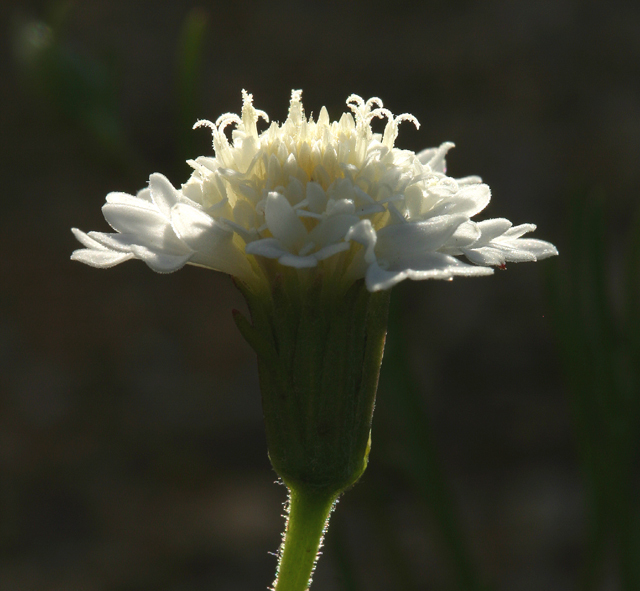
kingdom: Plantae
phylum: Tracheophyta
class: Magnoliopsida
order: Asterales
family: Asteraceae
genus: Chaenactis
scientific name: Chaenactis fremontii
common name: Fremont pincushion
